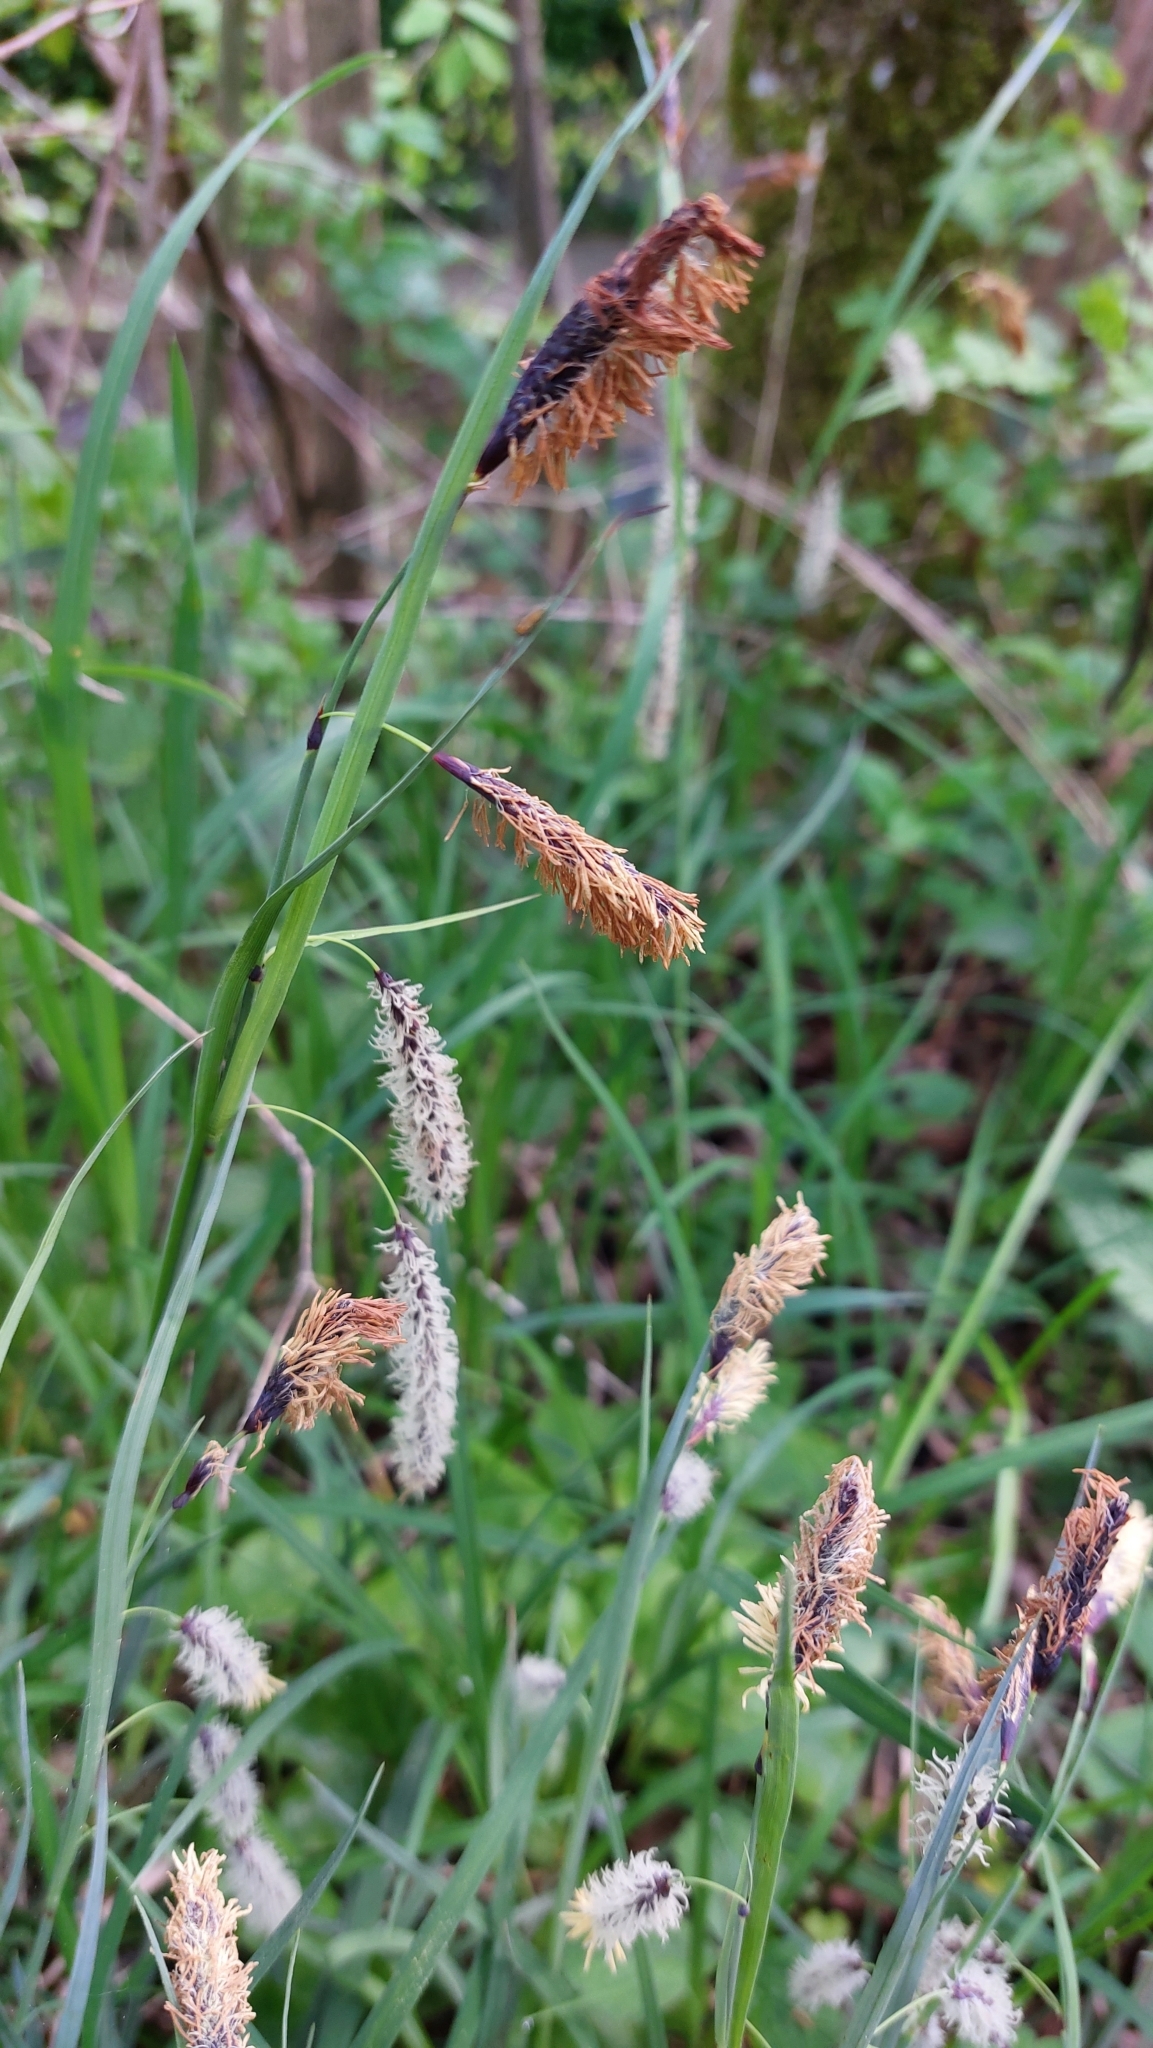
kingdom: Plantae
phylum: Tracheophyta
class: Liliopsida
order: Poales
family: Cyperaceae
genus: Carex
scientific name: Carex flacca
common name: Glaucous sedge
